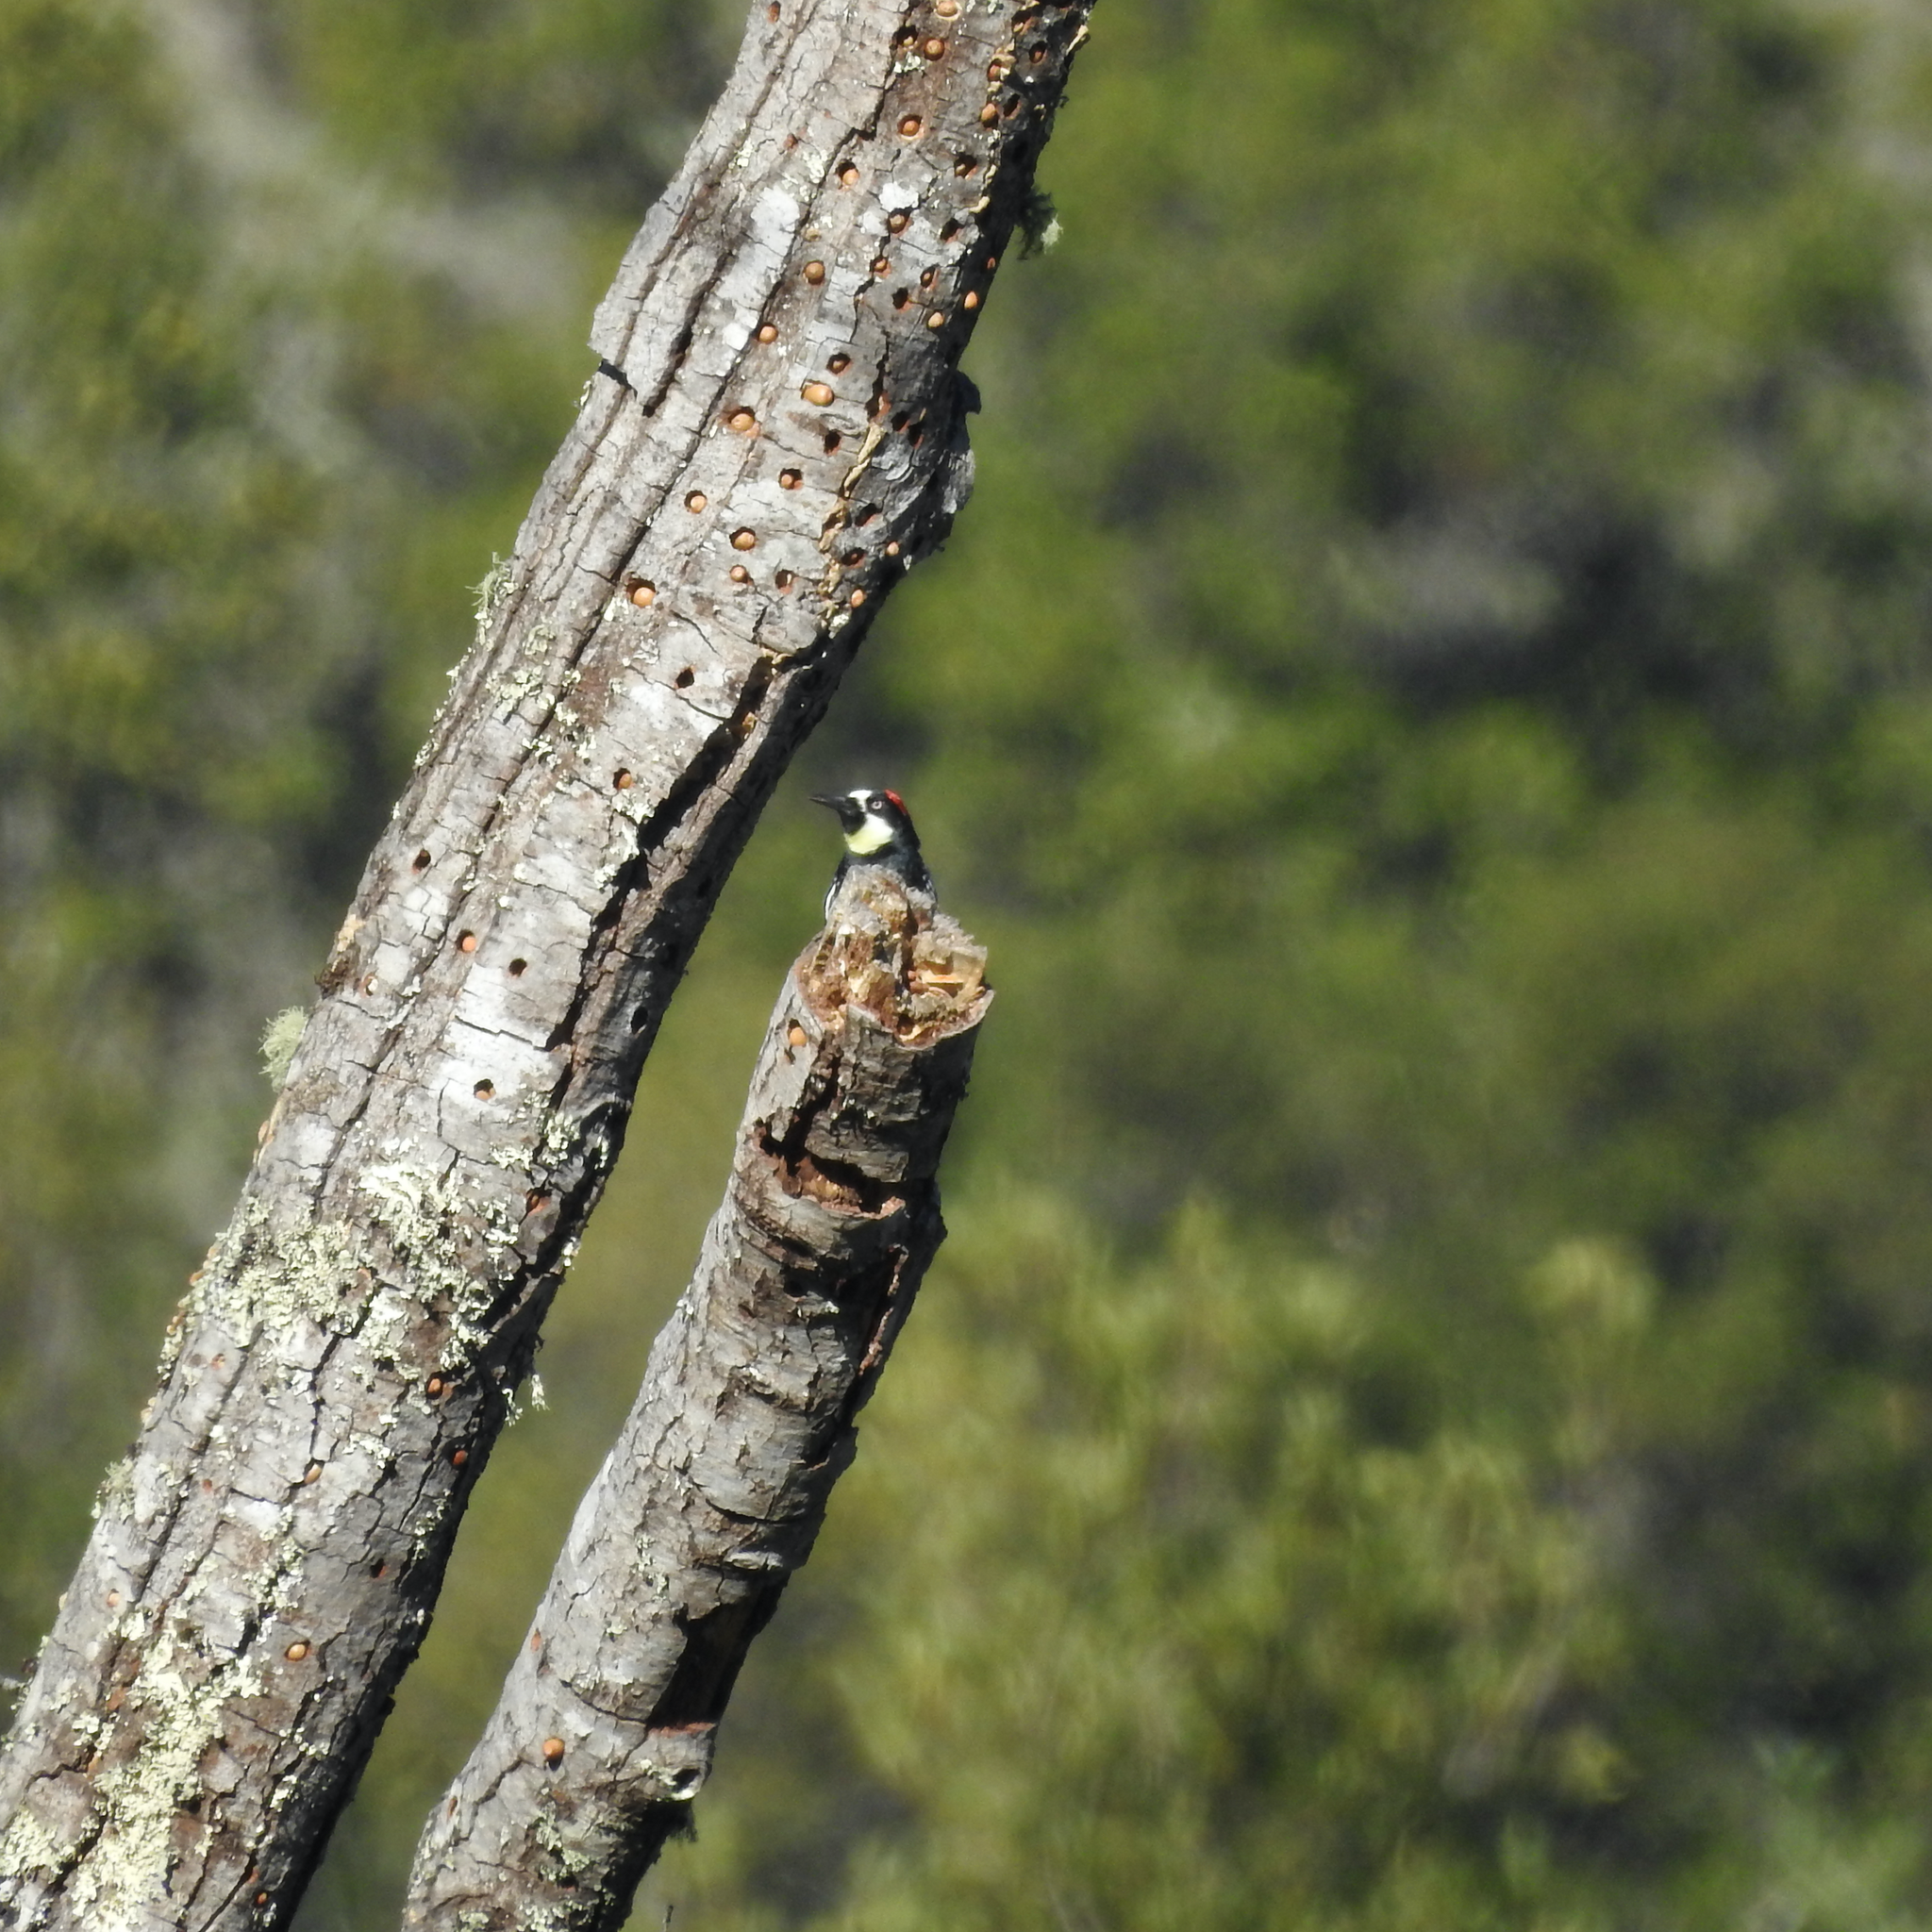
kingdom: Animalia
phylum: Chordata
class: Aves
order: Piciformes
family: Picidae
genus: Melanerpes
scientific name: Melanerpes formicivorus
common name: Acorn woodpecker
